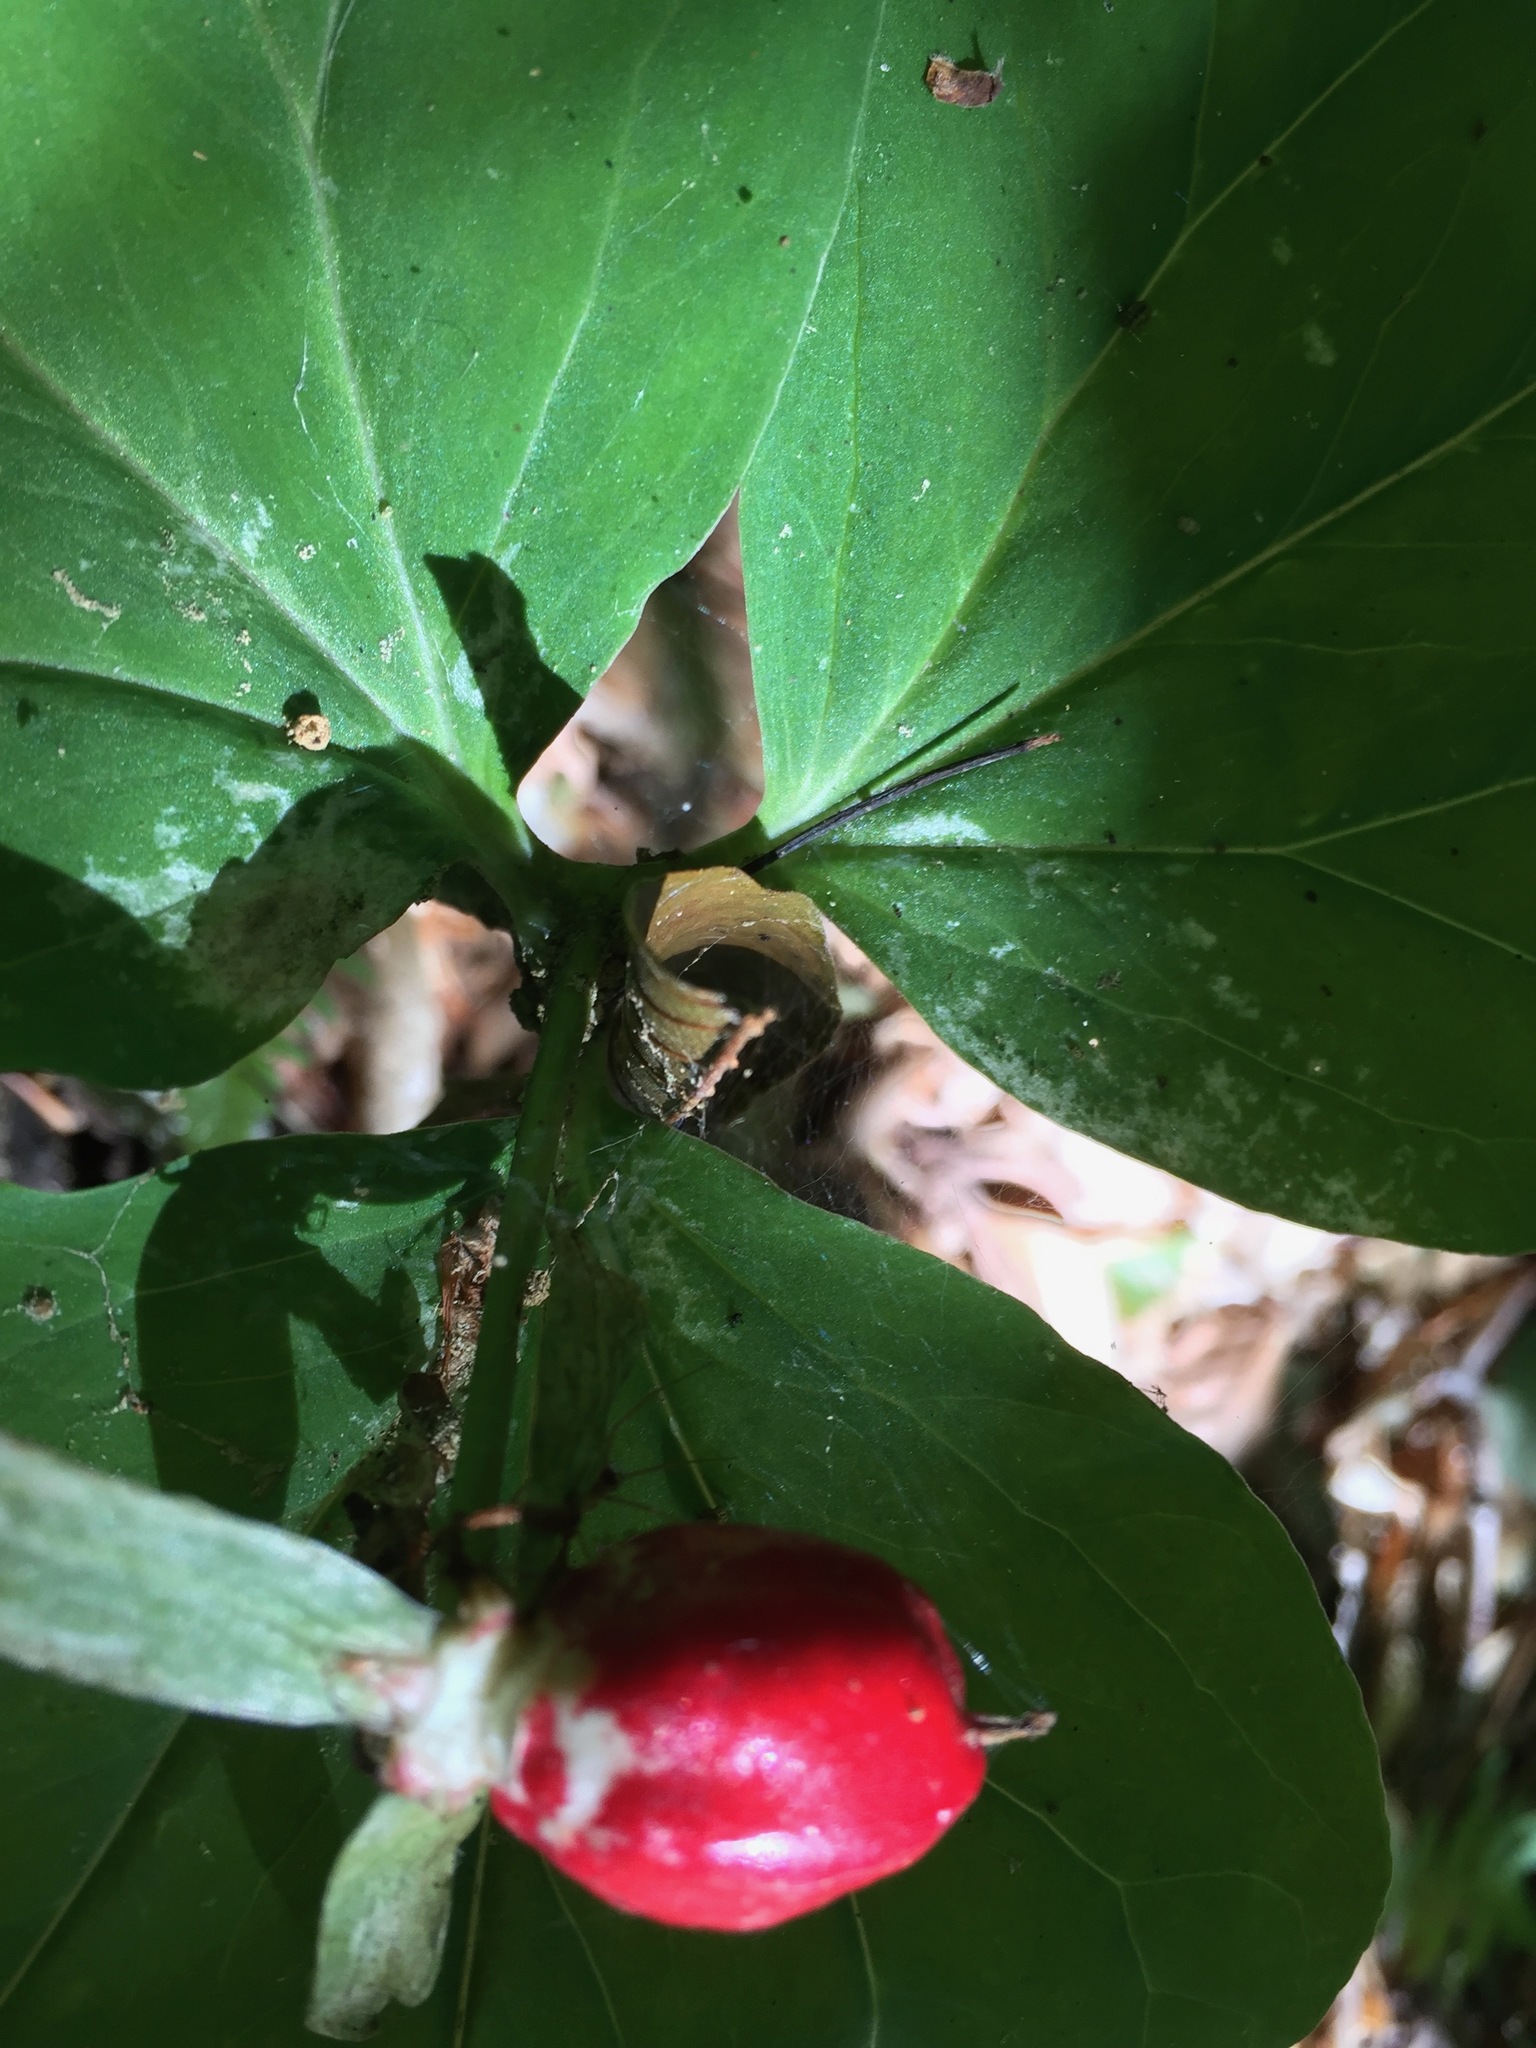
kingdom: Plantae
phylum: Tracheophyta
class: Liliopsida
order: Liliales
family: Melanthiaceae
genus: Trillium
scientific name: Trillium undulatum
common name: Paint trillium
